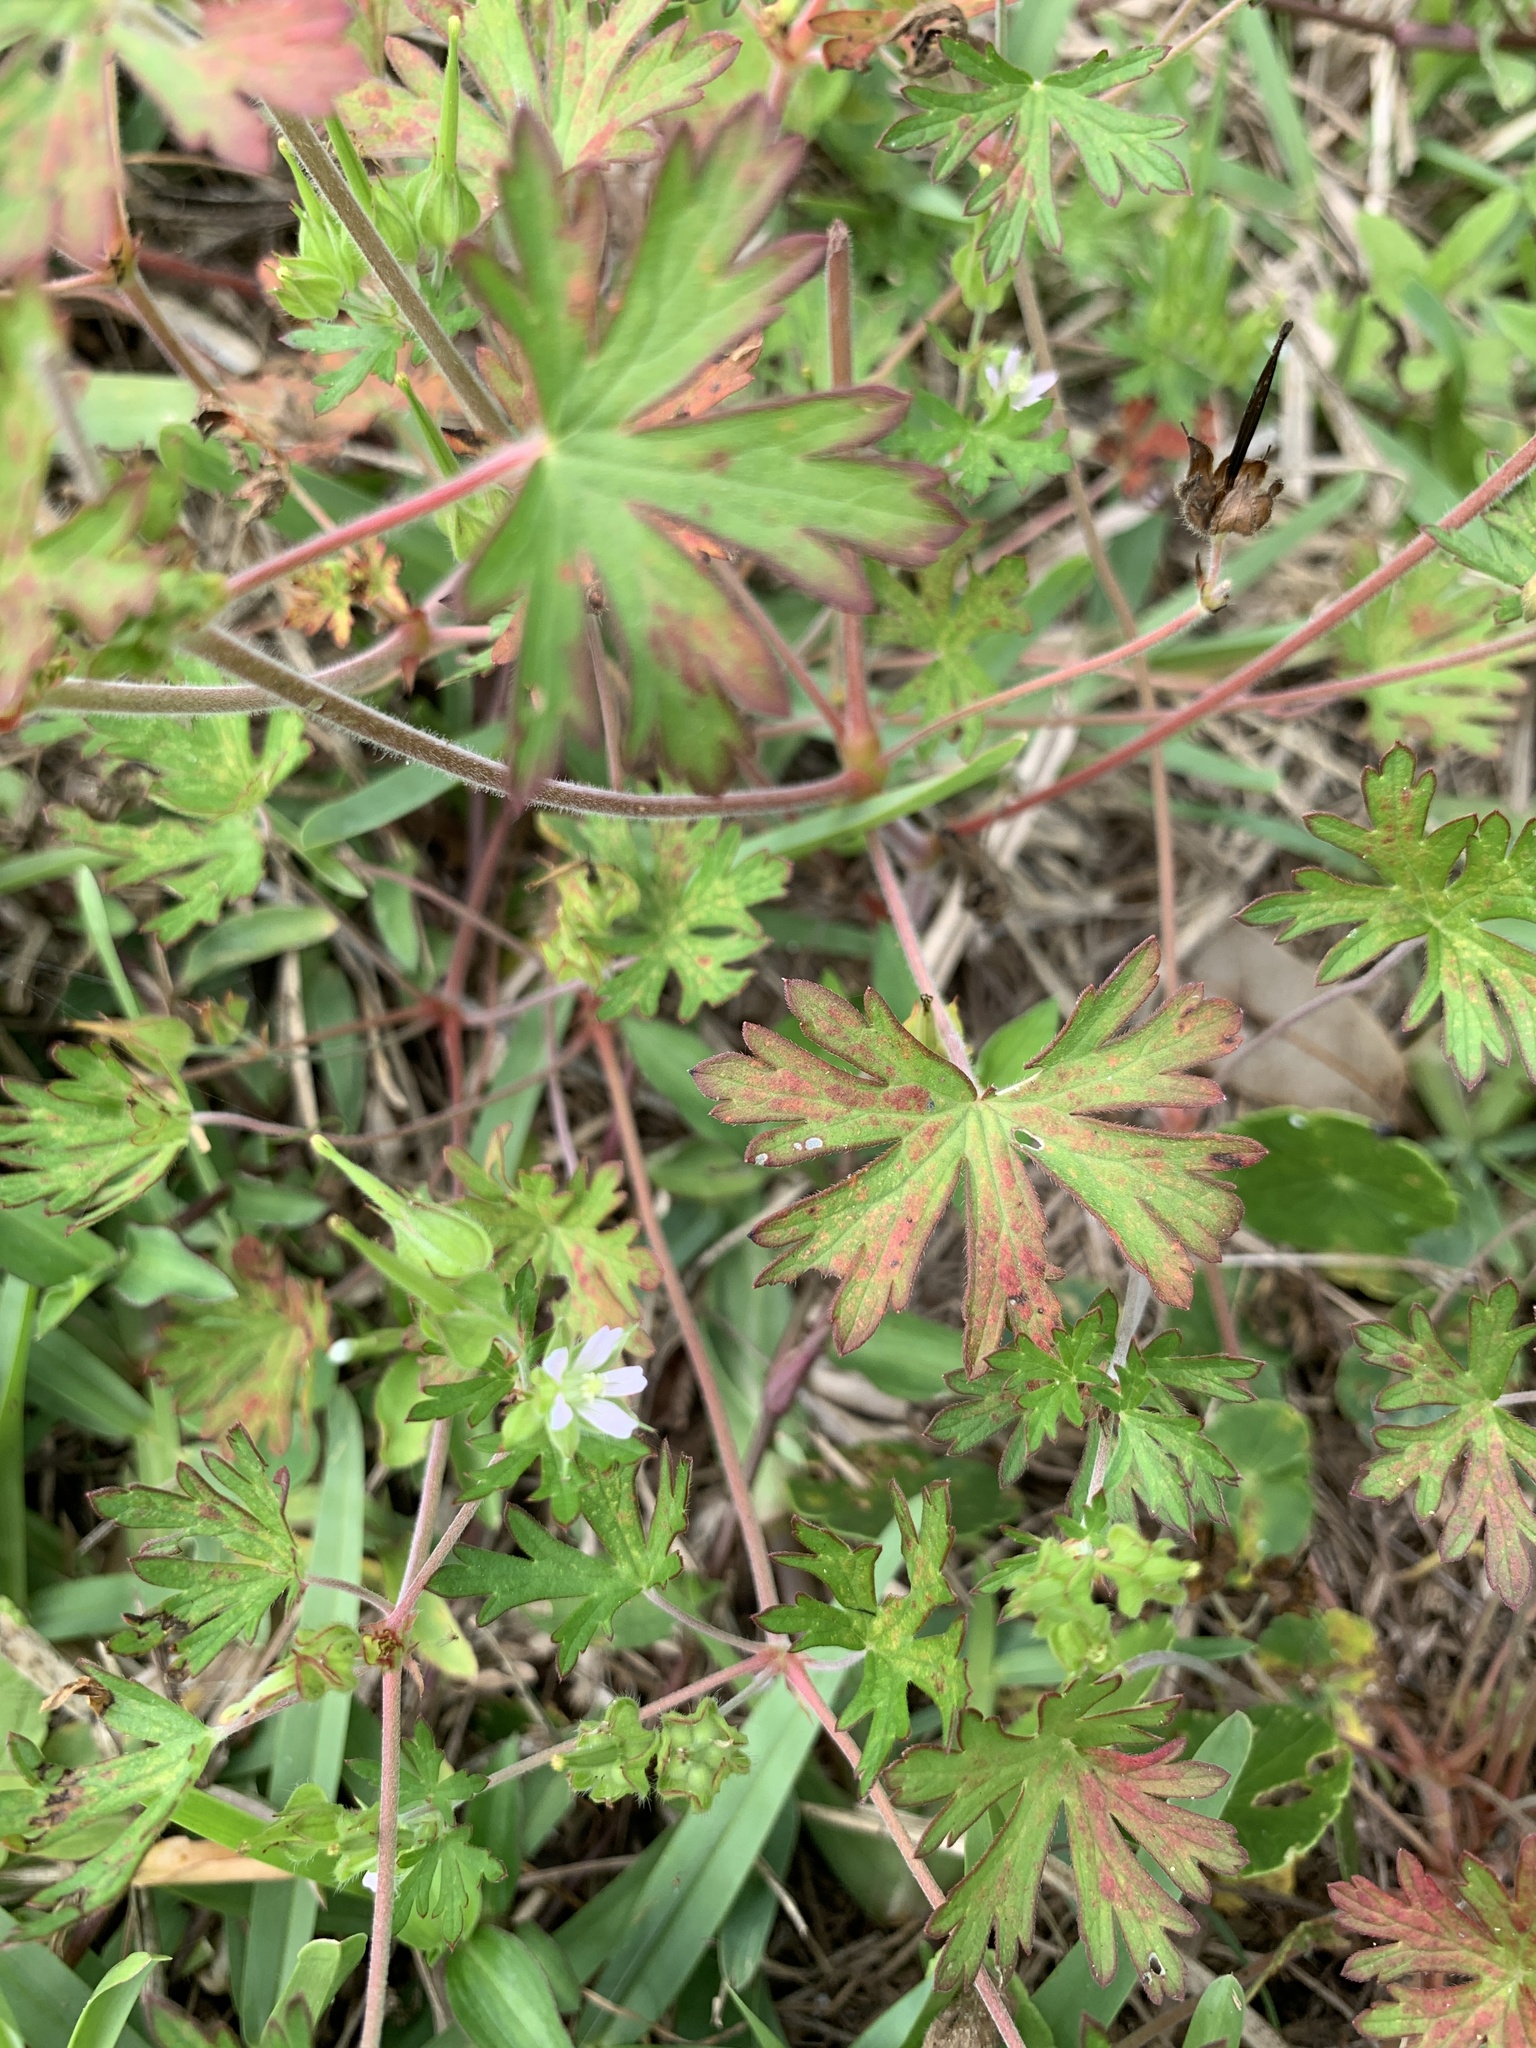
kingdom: Plantae
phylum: Tracheophyta
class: Magnoliopsida
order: Geraniales
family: Geraniaceae
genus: Geranium
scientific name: Geranium carolinianum
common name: Carolina crane's-bill
